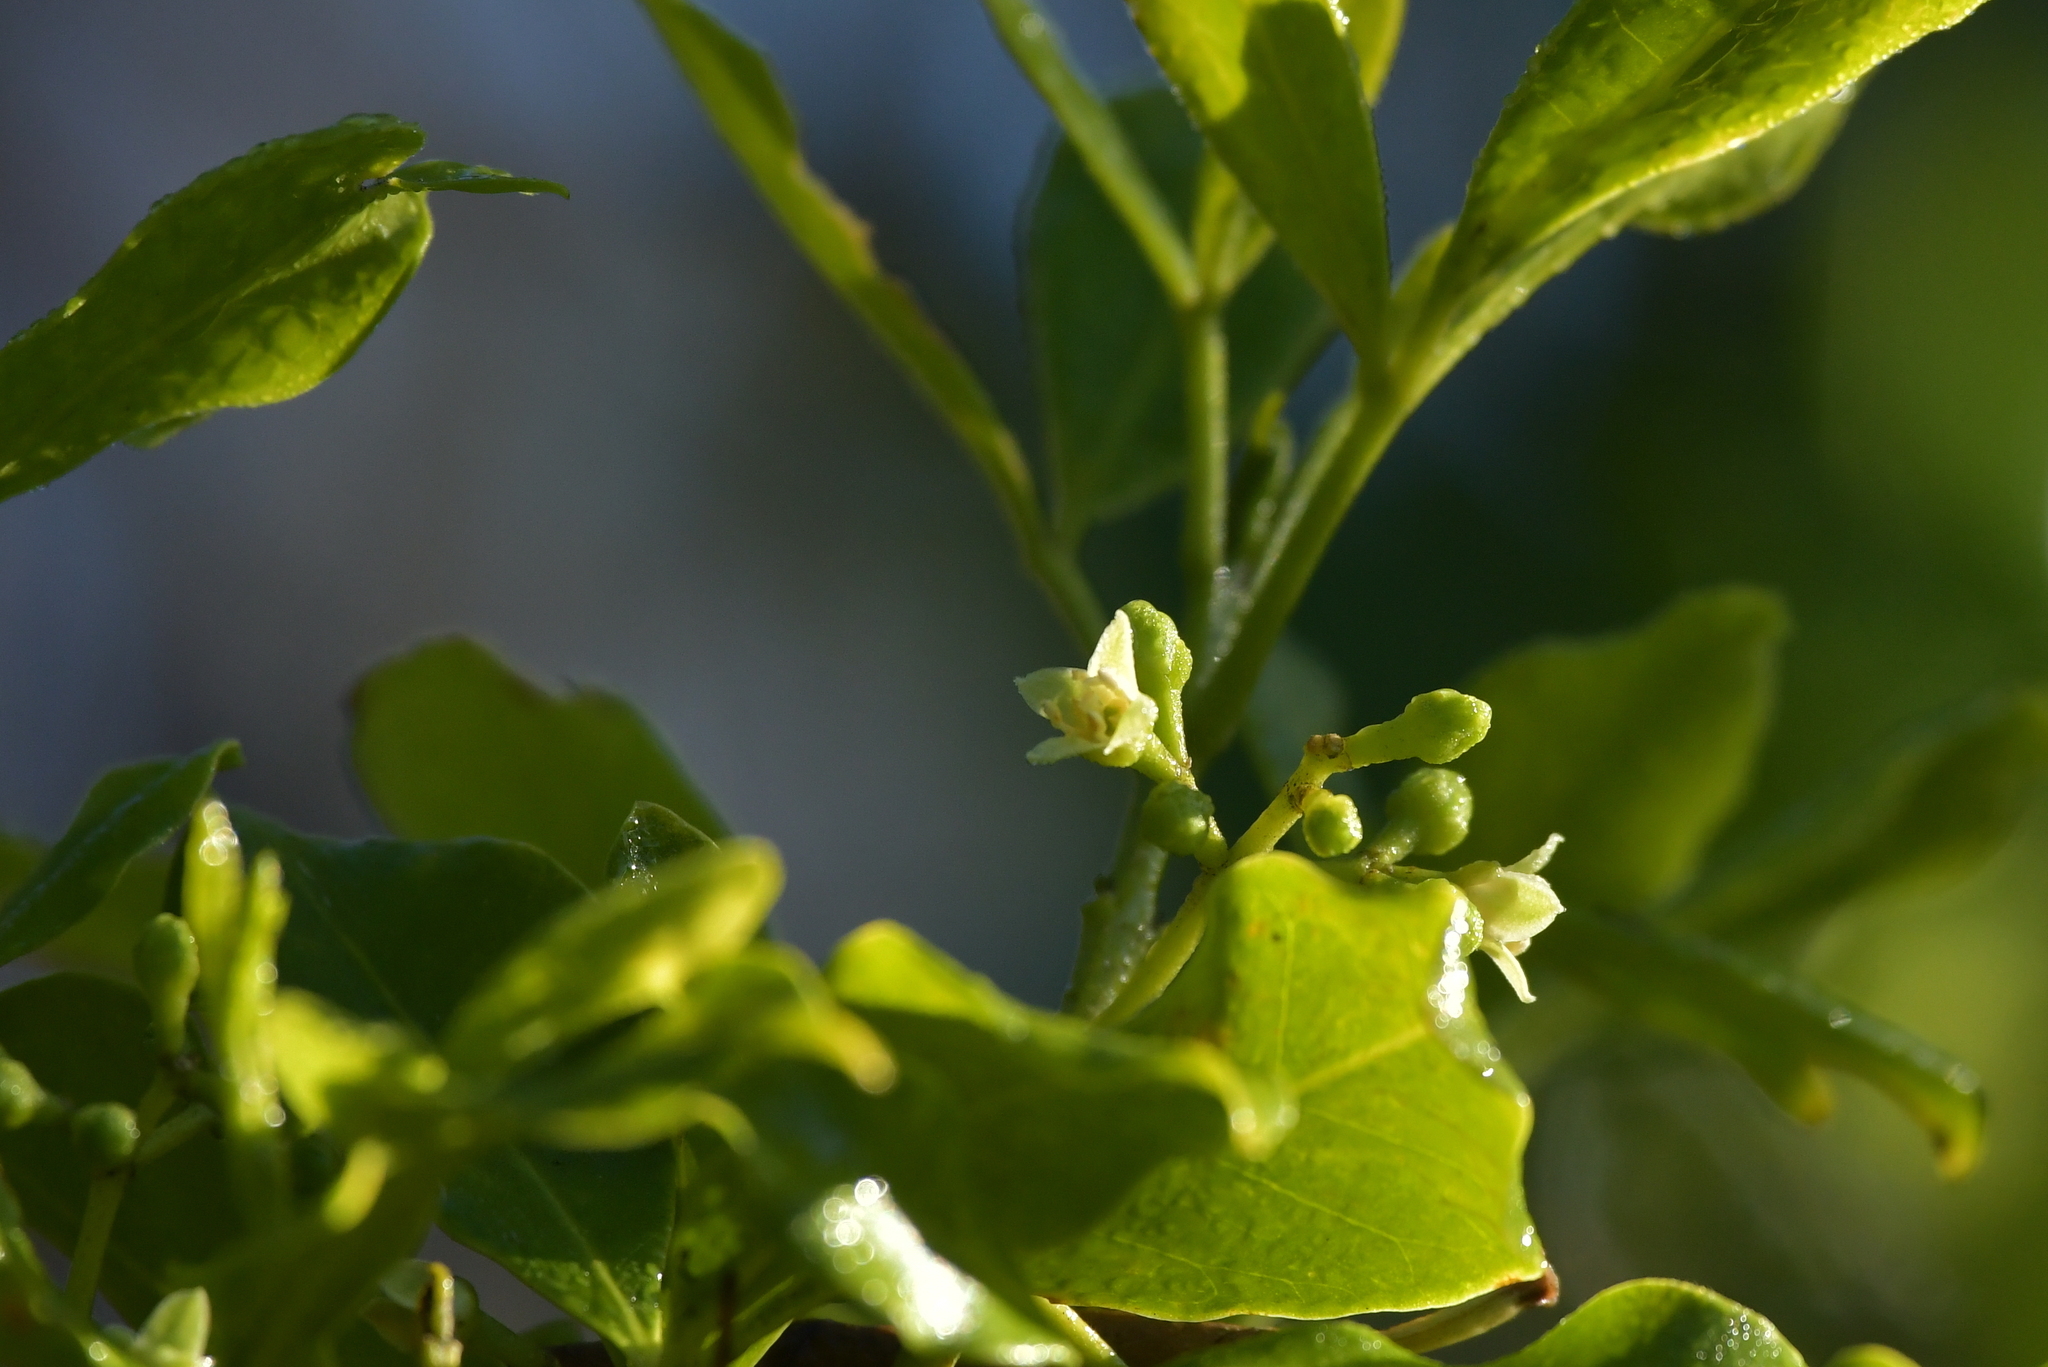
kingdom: Plantae
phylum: Tracheophyta
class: Magnoliopsida
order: Sapindales
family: Rutaceae
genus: Melicope
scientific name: Melicope ternata
